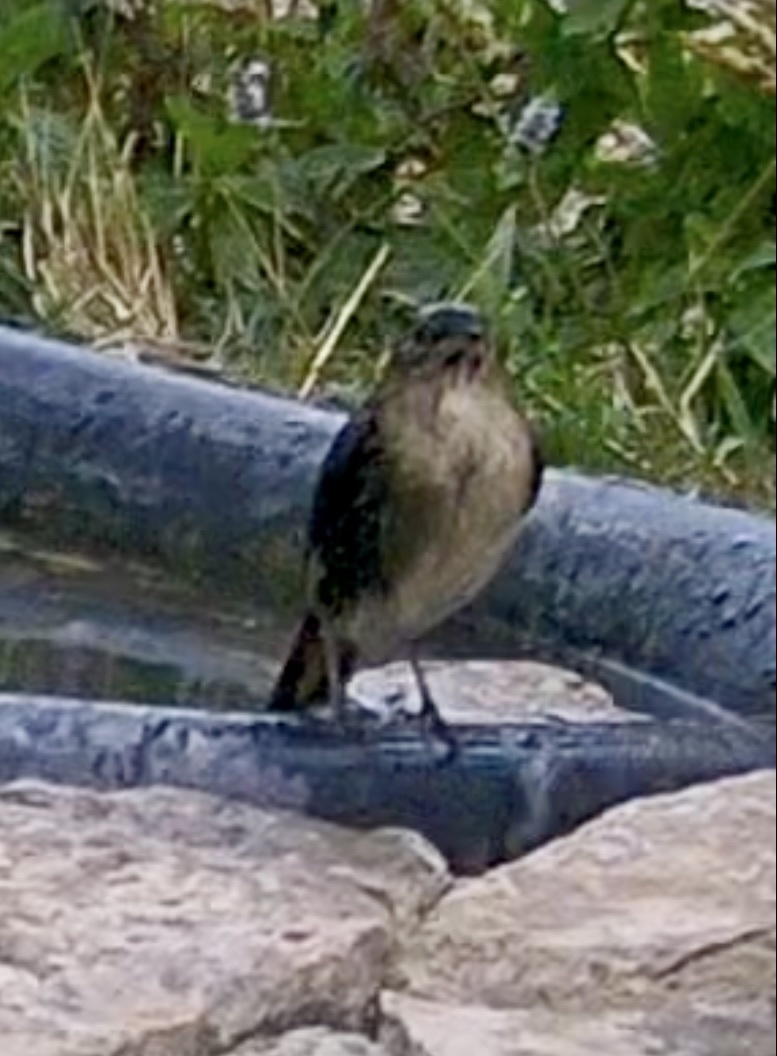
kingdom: Animalia
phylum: Chordata
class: Aves
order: Passeriformes
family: Muscicapidae
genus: Luscinia
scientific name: Luscinia megarhynchos
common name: Common nightingale
